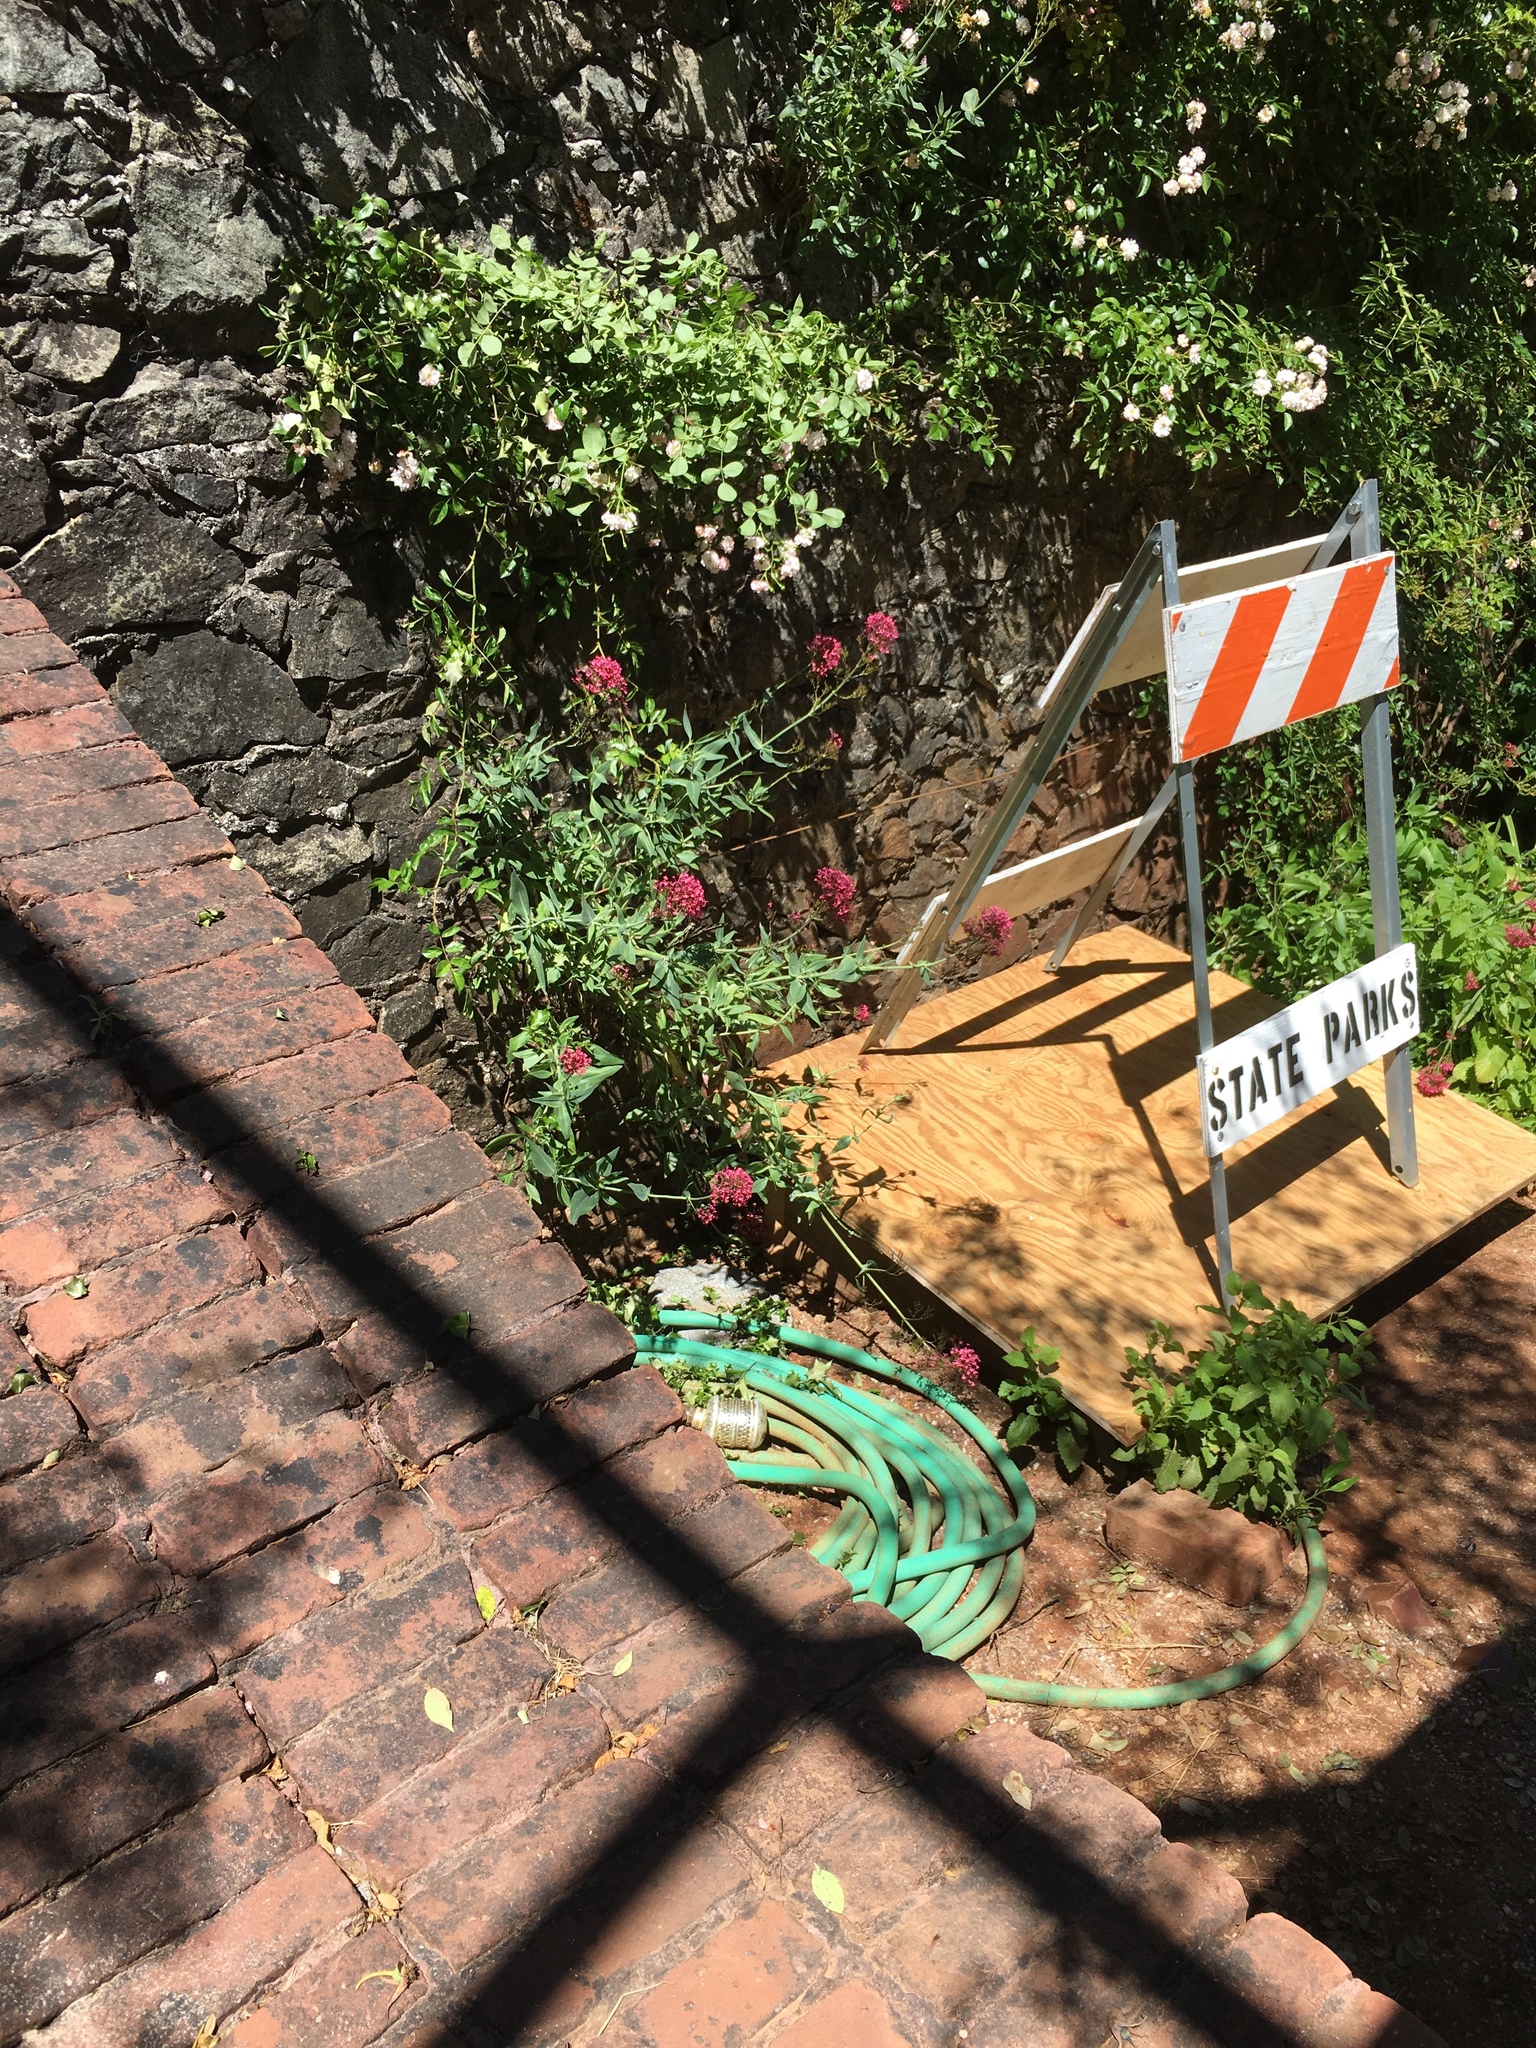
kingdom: Animalia
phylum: Arthropoda
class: Insecta
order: Lepidoptera
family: Papilionidae
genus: Papilio
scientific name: Papilio eurymedon
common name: Pale tiger swallowtail
